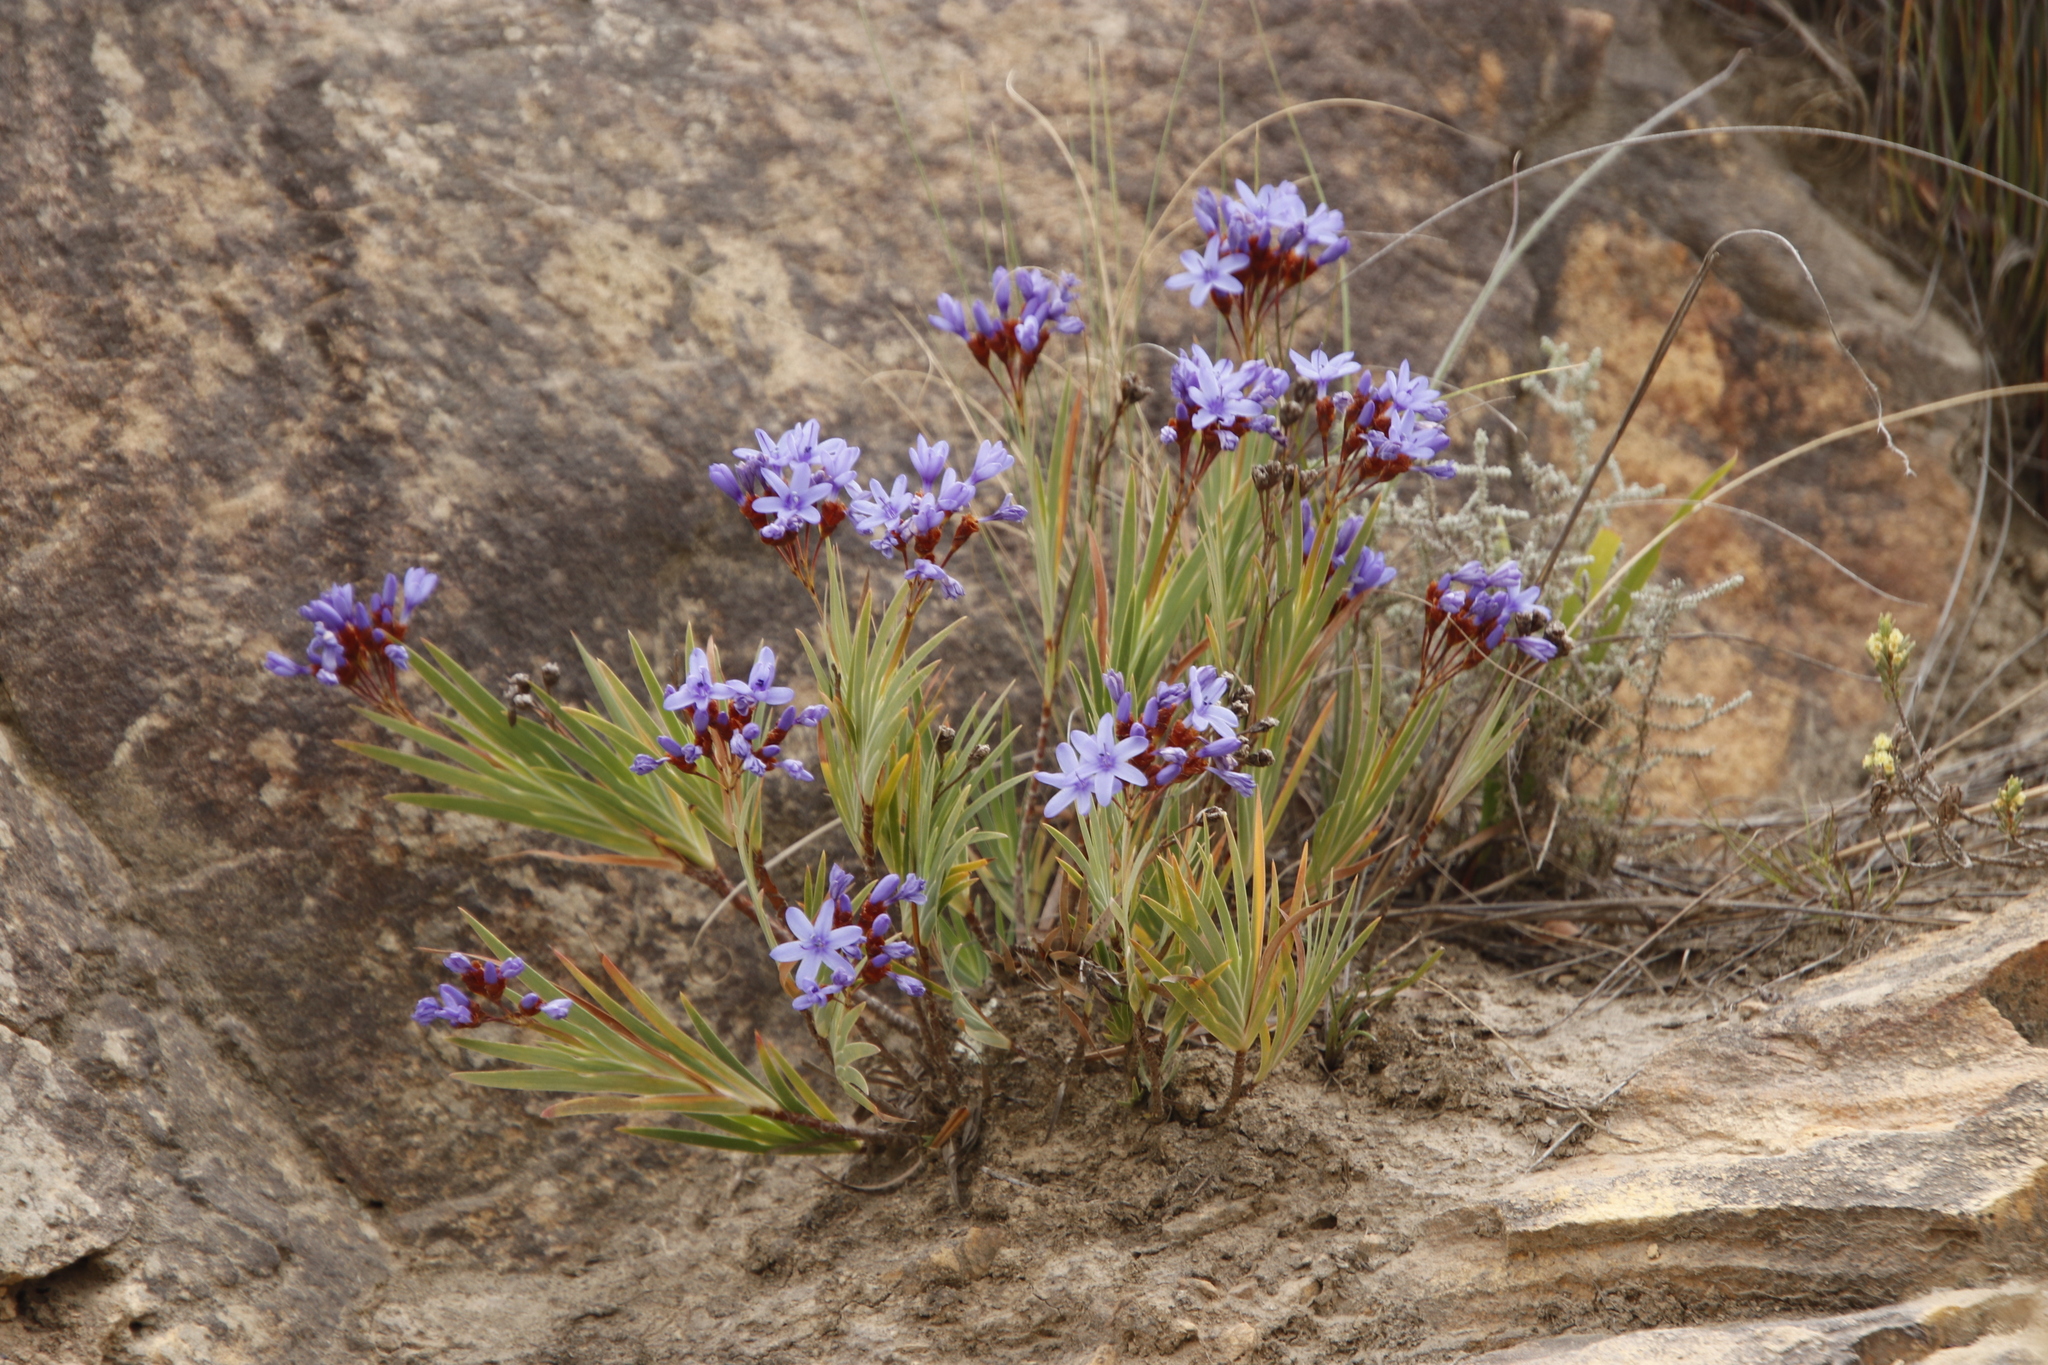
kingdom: Plantae
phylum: Tracheophyta
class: Liliopsida
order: Asparagales
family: Iridaceae
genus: Nivenia
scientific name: Nivenia binata
